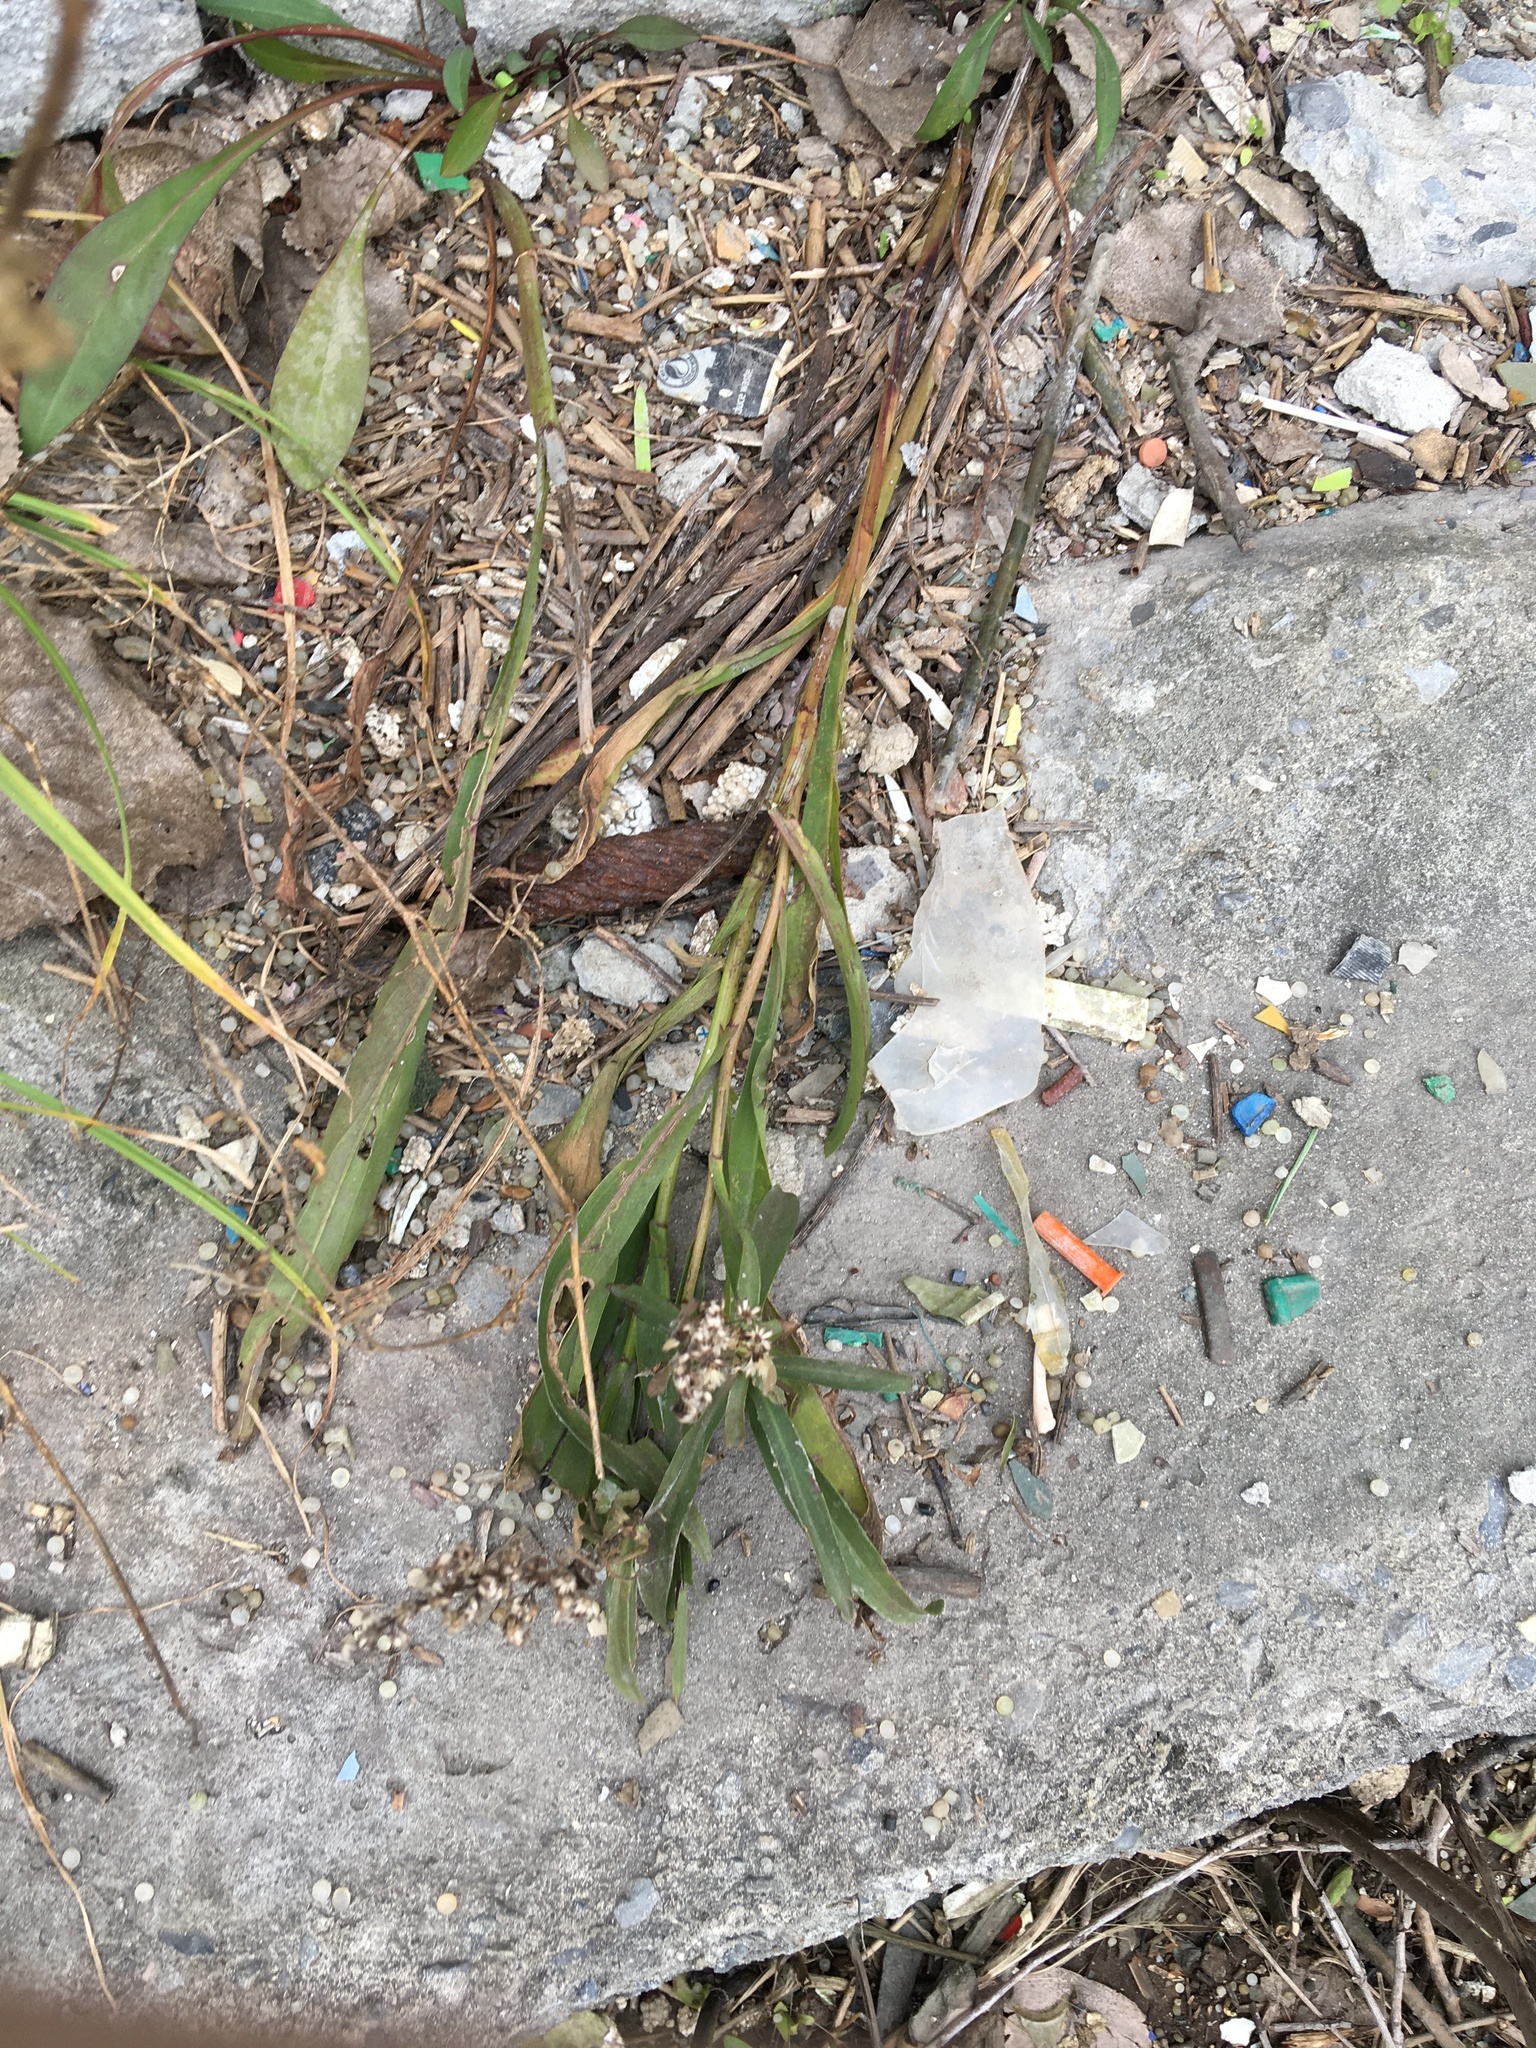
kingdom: Plantae
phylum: Tracheophyta
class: Magnoliopsida
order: Asterales
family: Asteraceae
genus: Solidago
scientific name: Solidago sempervirens
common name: Salt-marsh goldenrod
